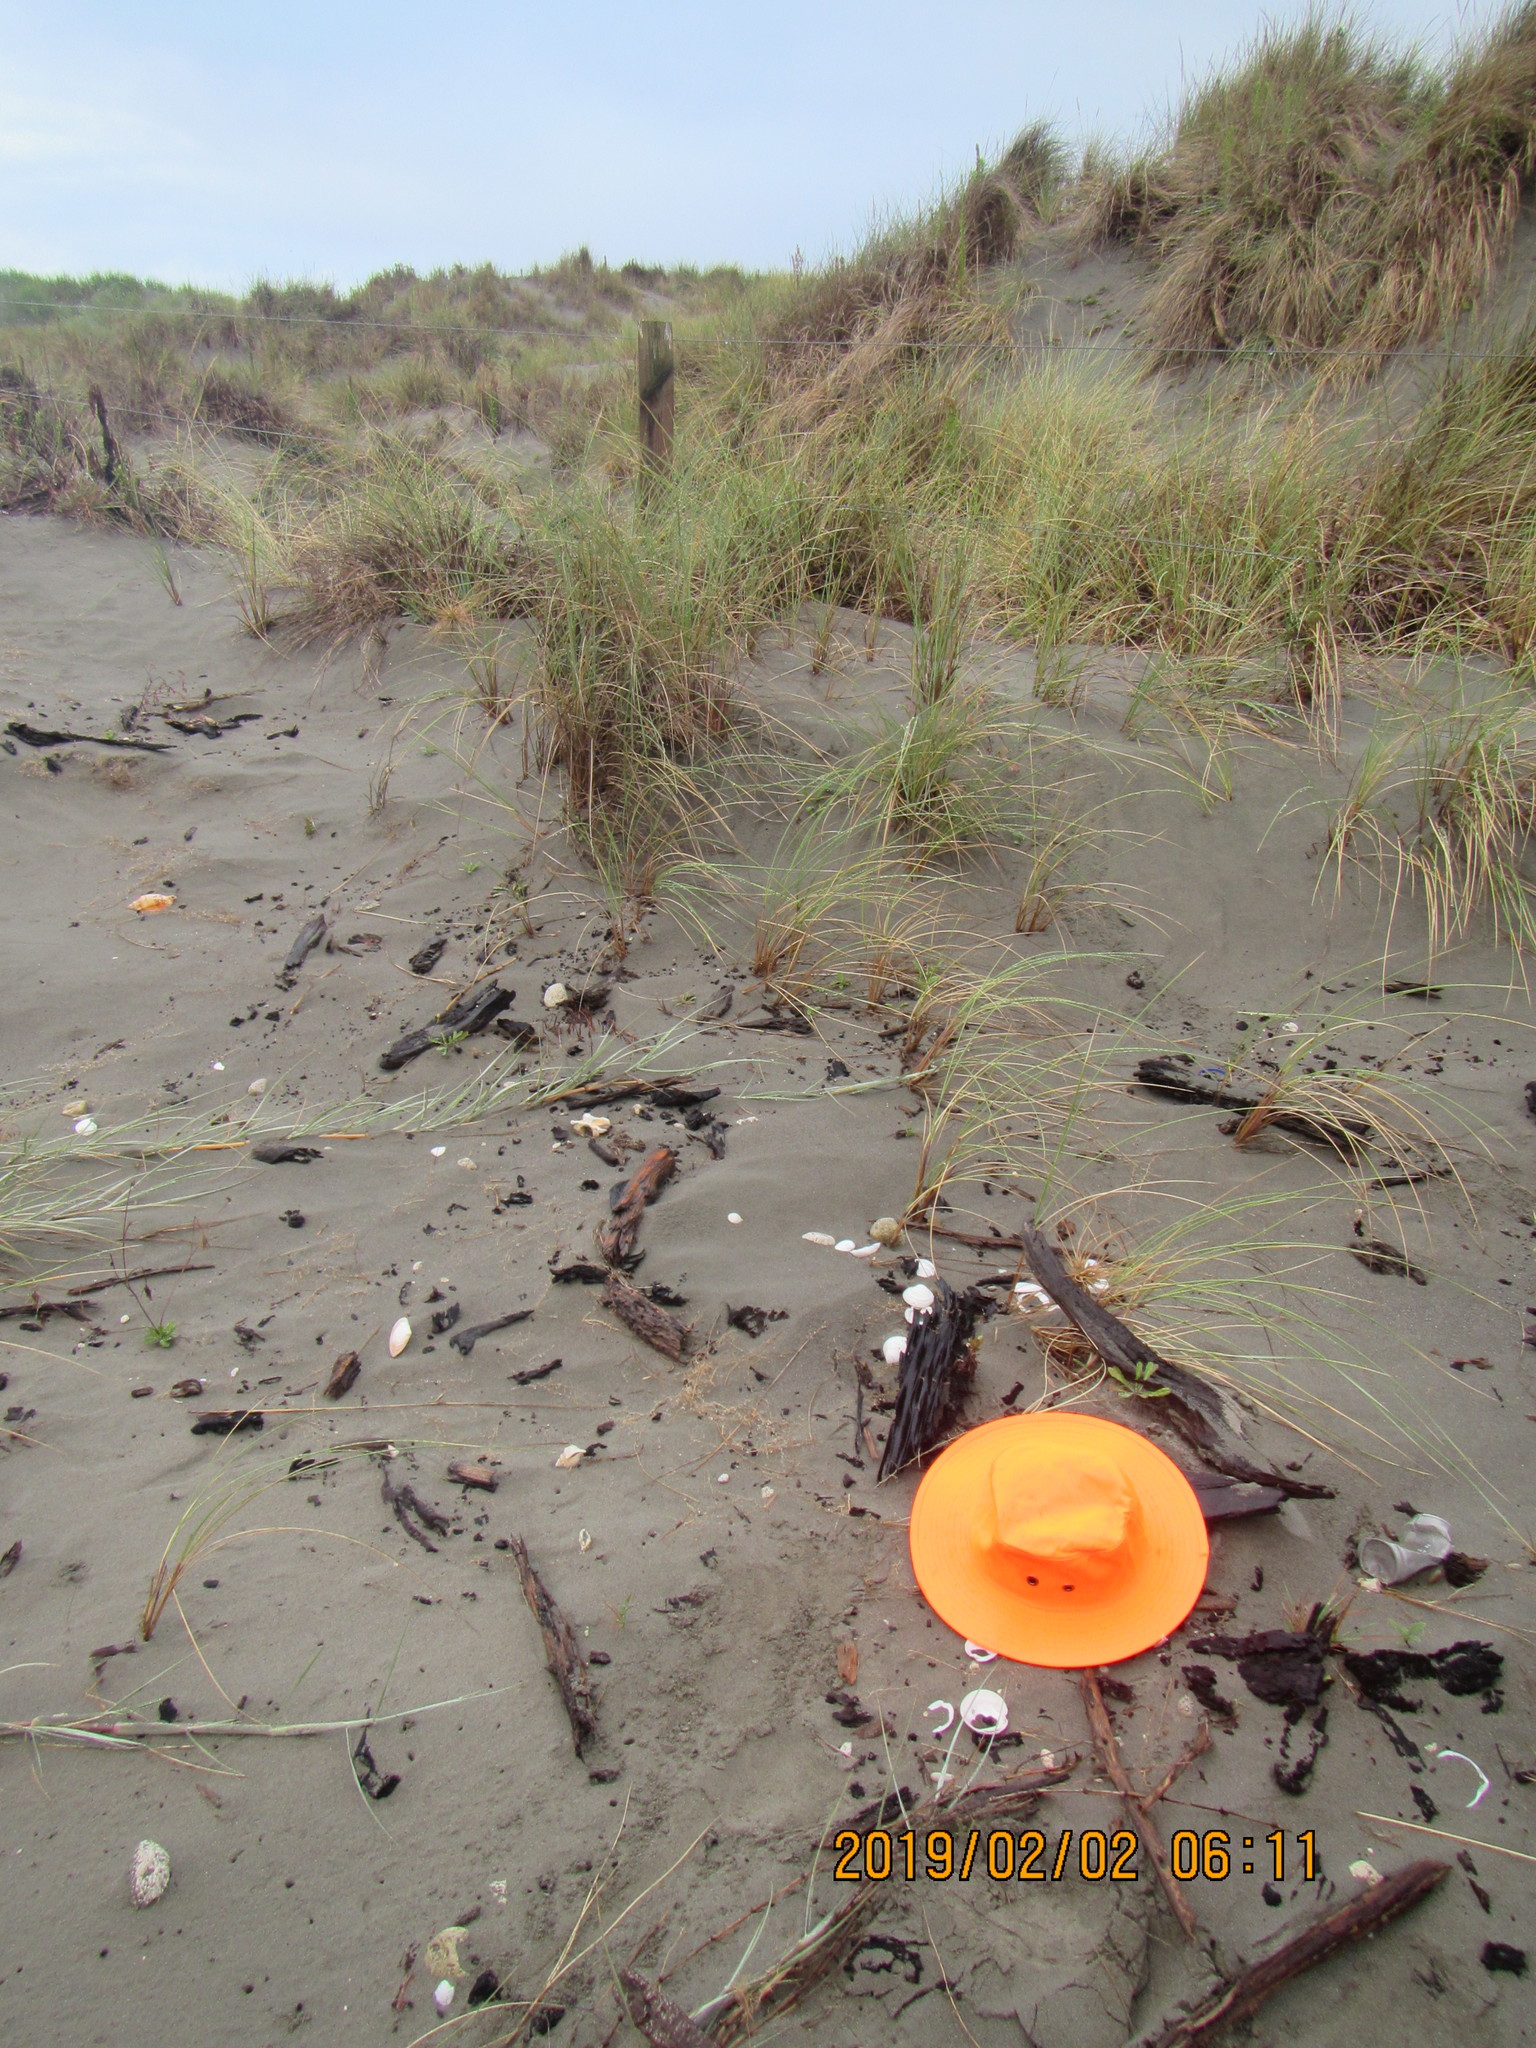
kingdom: Animalia
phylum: Arthropoda
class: Arachnida
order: Araneae
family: Theridiidae
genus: Latrodectus
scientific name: Latrodectus katipo
